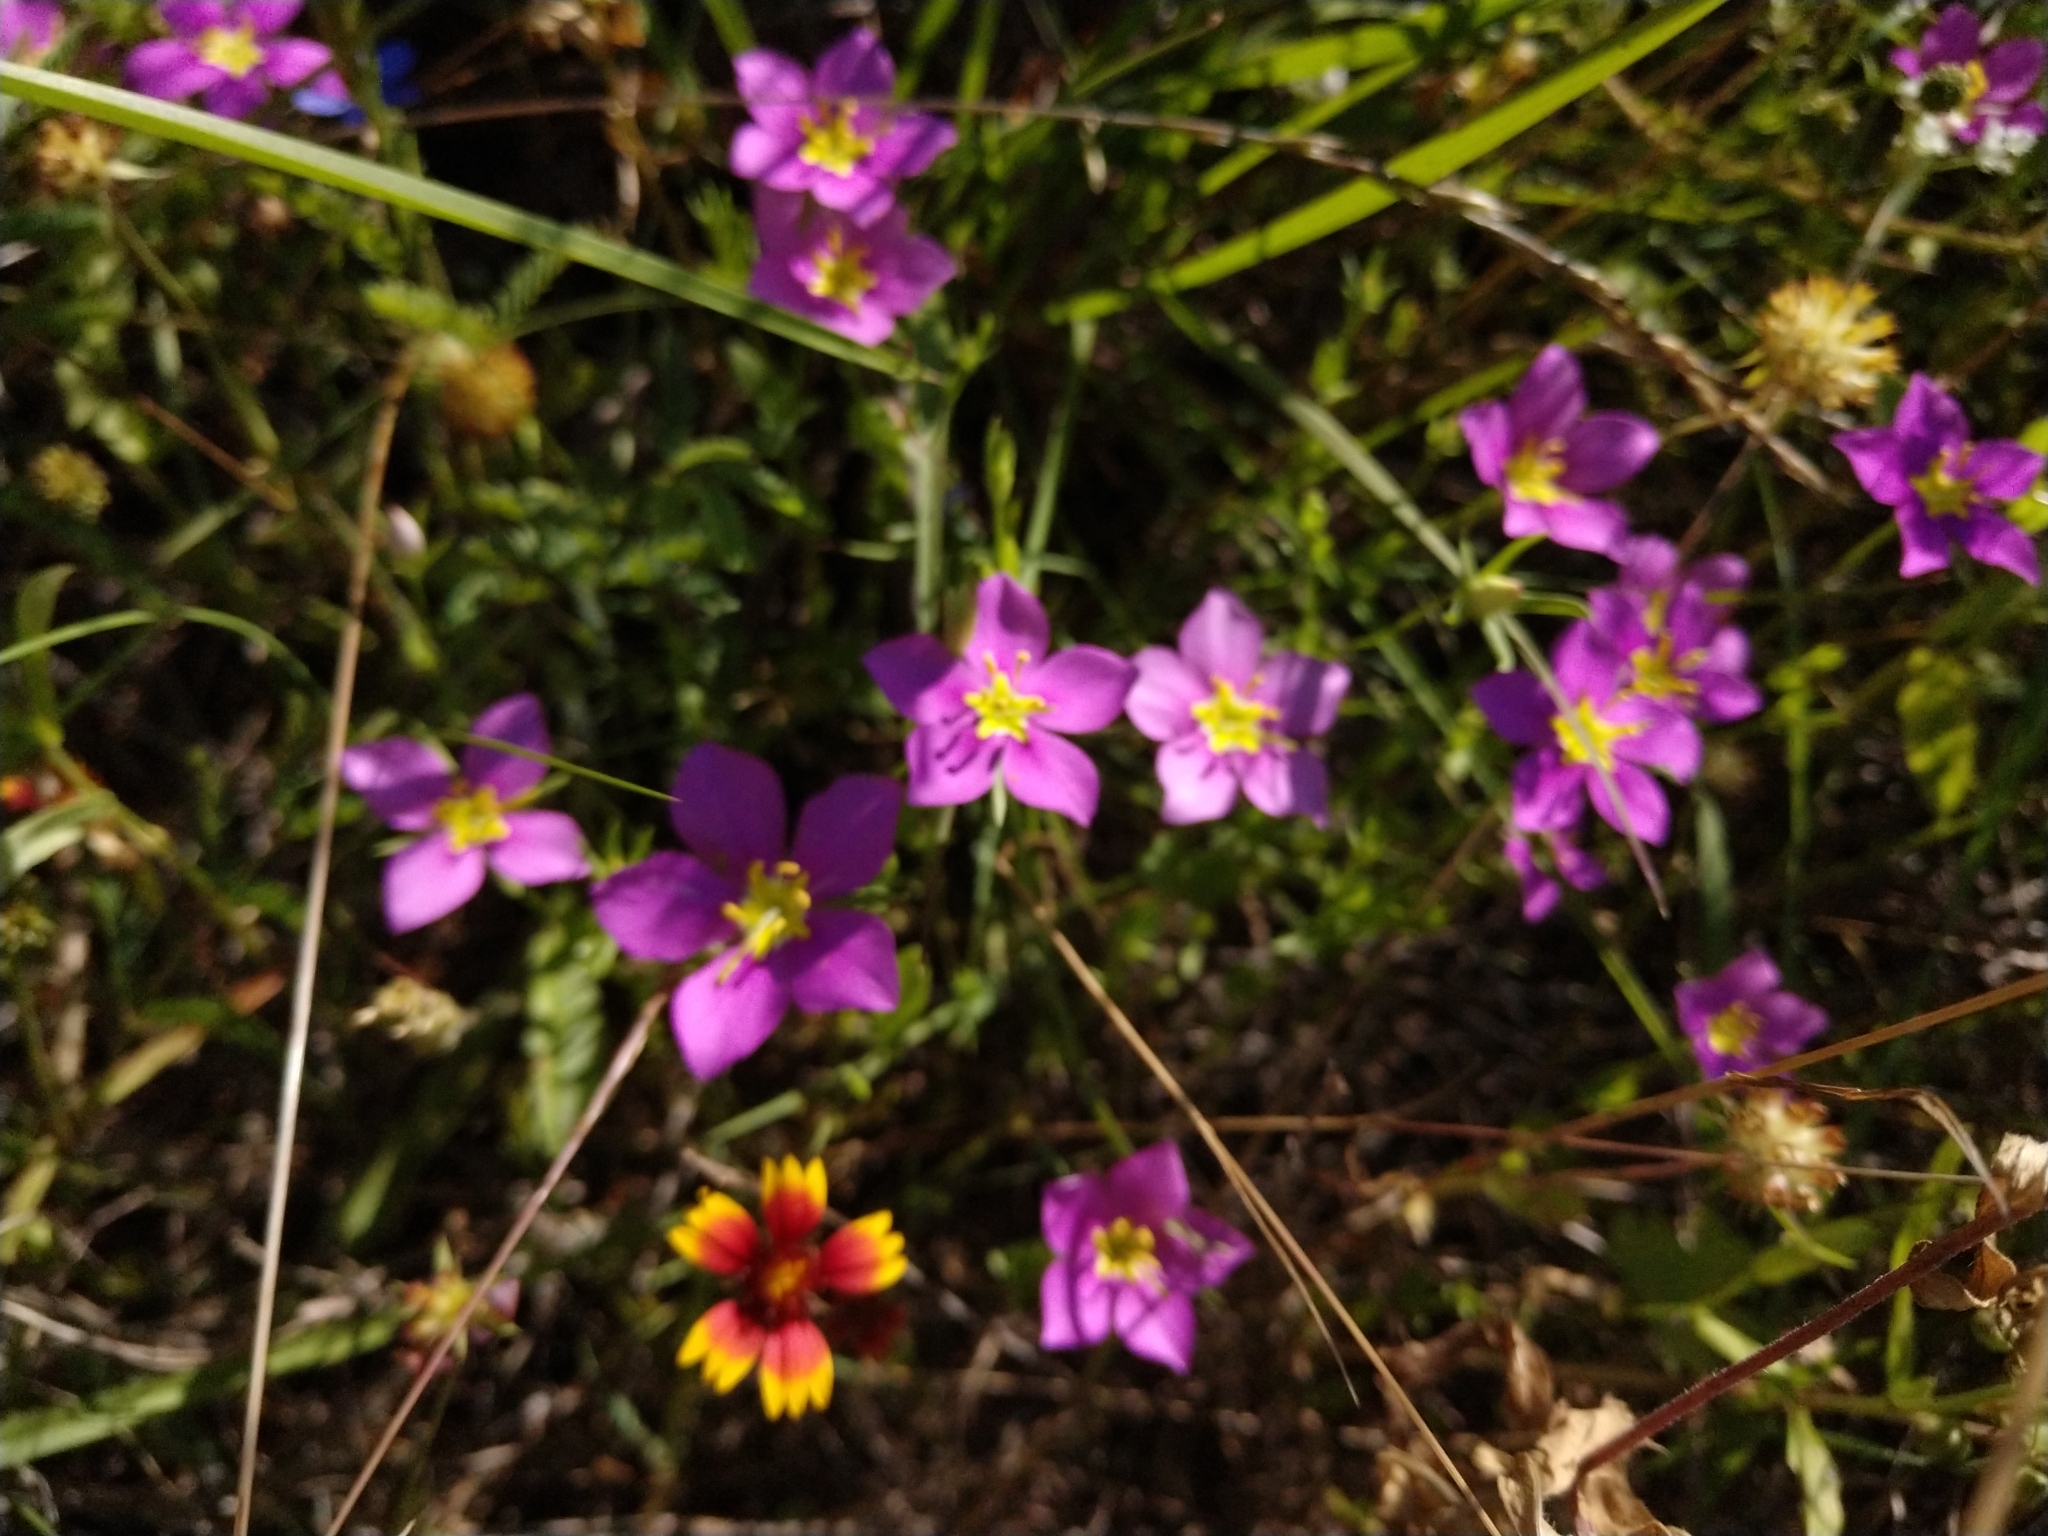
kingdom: Plantae
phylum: Tracheophyta
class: Magnoliopsida
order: Gentianales
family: Gentianaceae
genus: Sabatia
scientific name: Sabatia campestris
